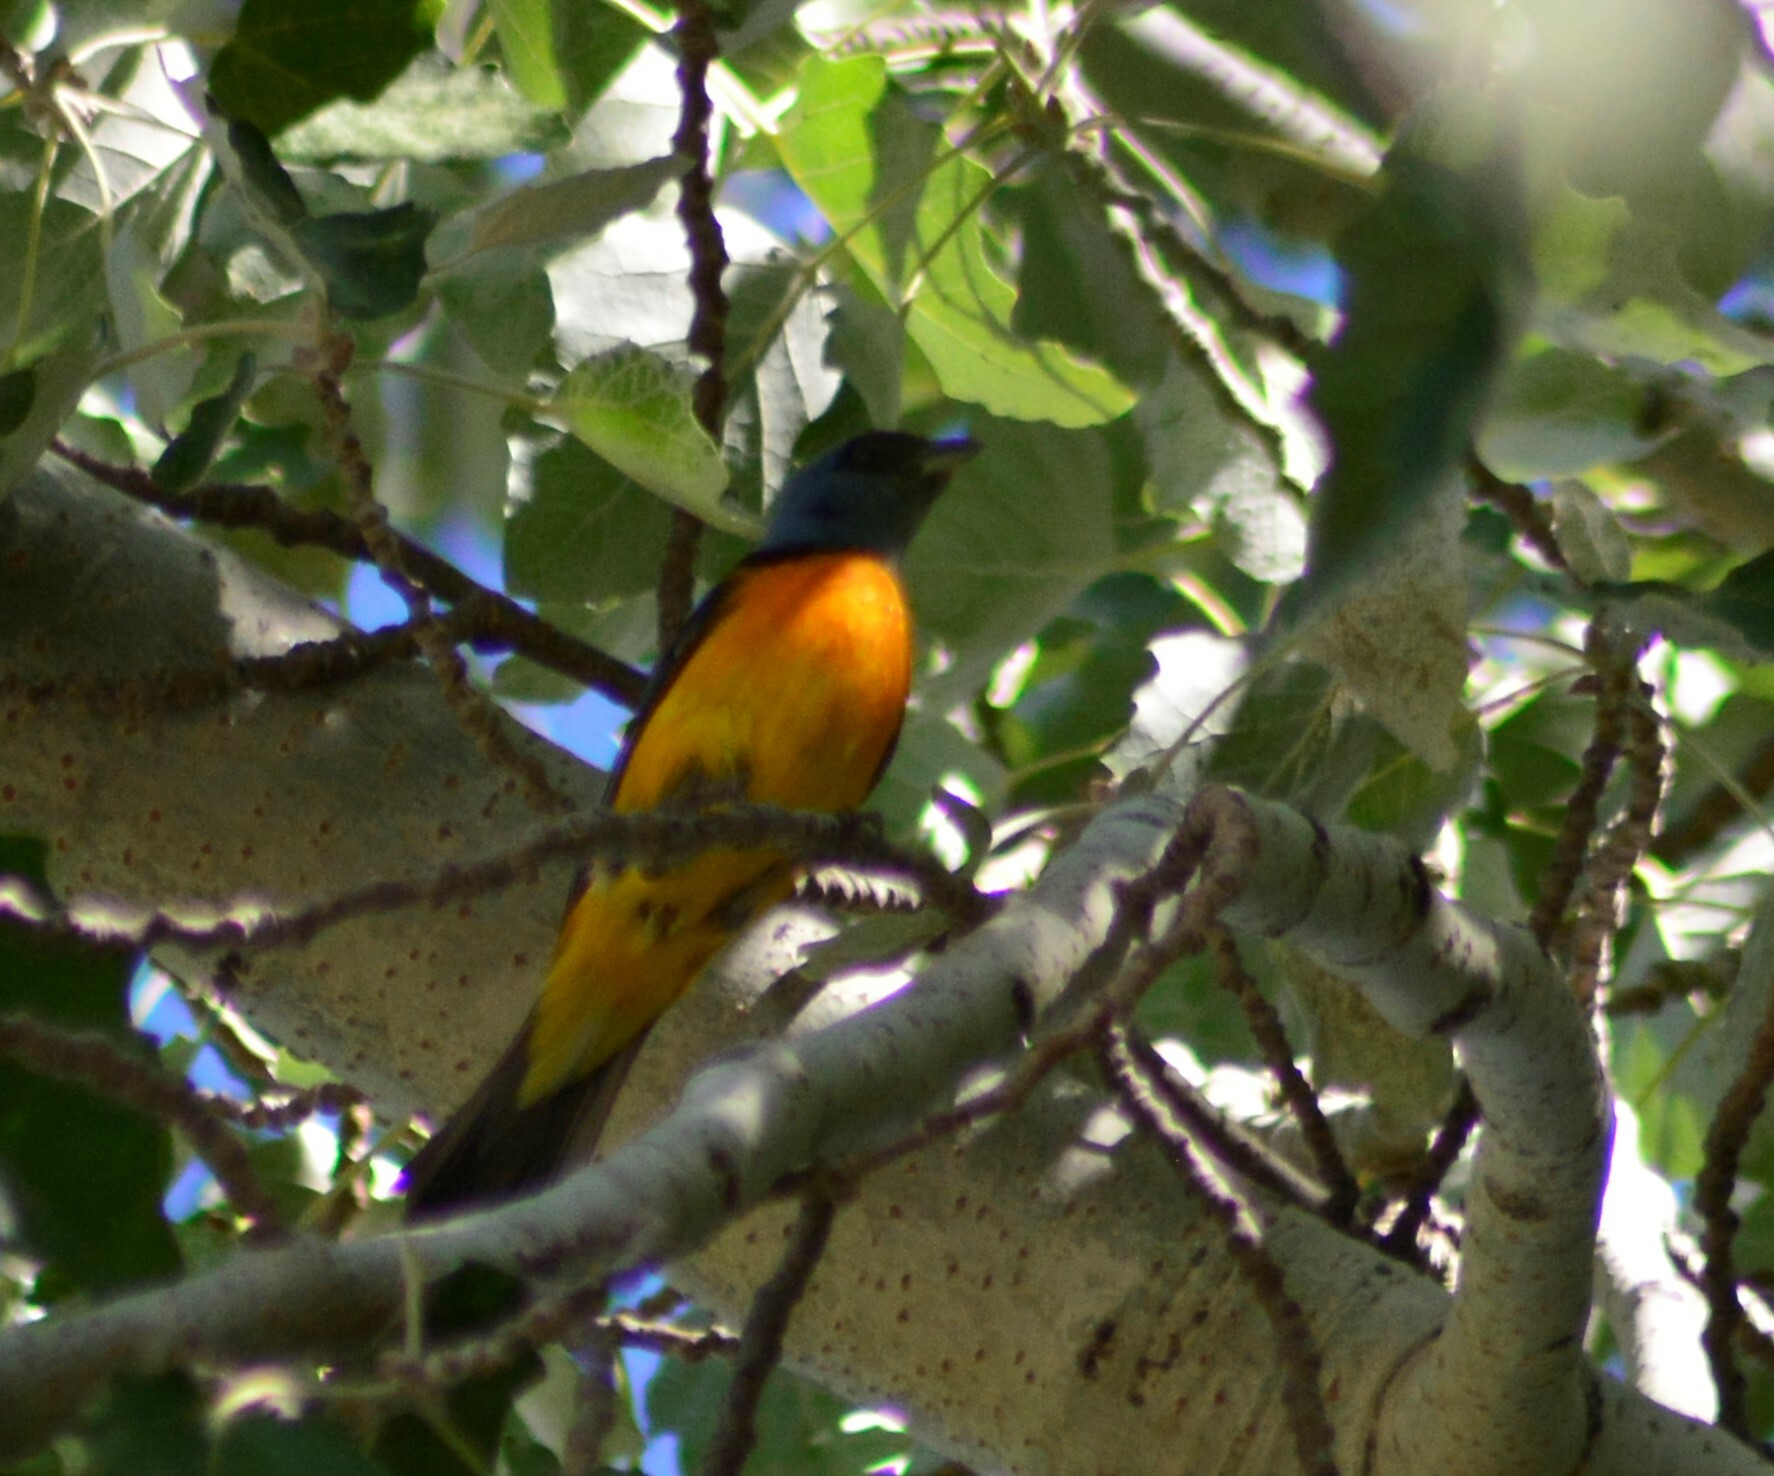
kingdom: Animalia
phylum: Chordata
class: Aves
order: Passeriformes
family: Thraupidae
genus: Rauenia
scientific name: Rauenia bonariensis
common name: Blue-and-yellow tanager
